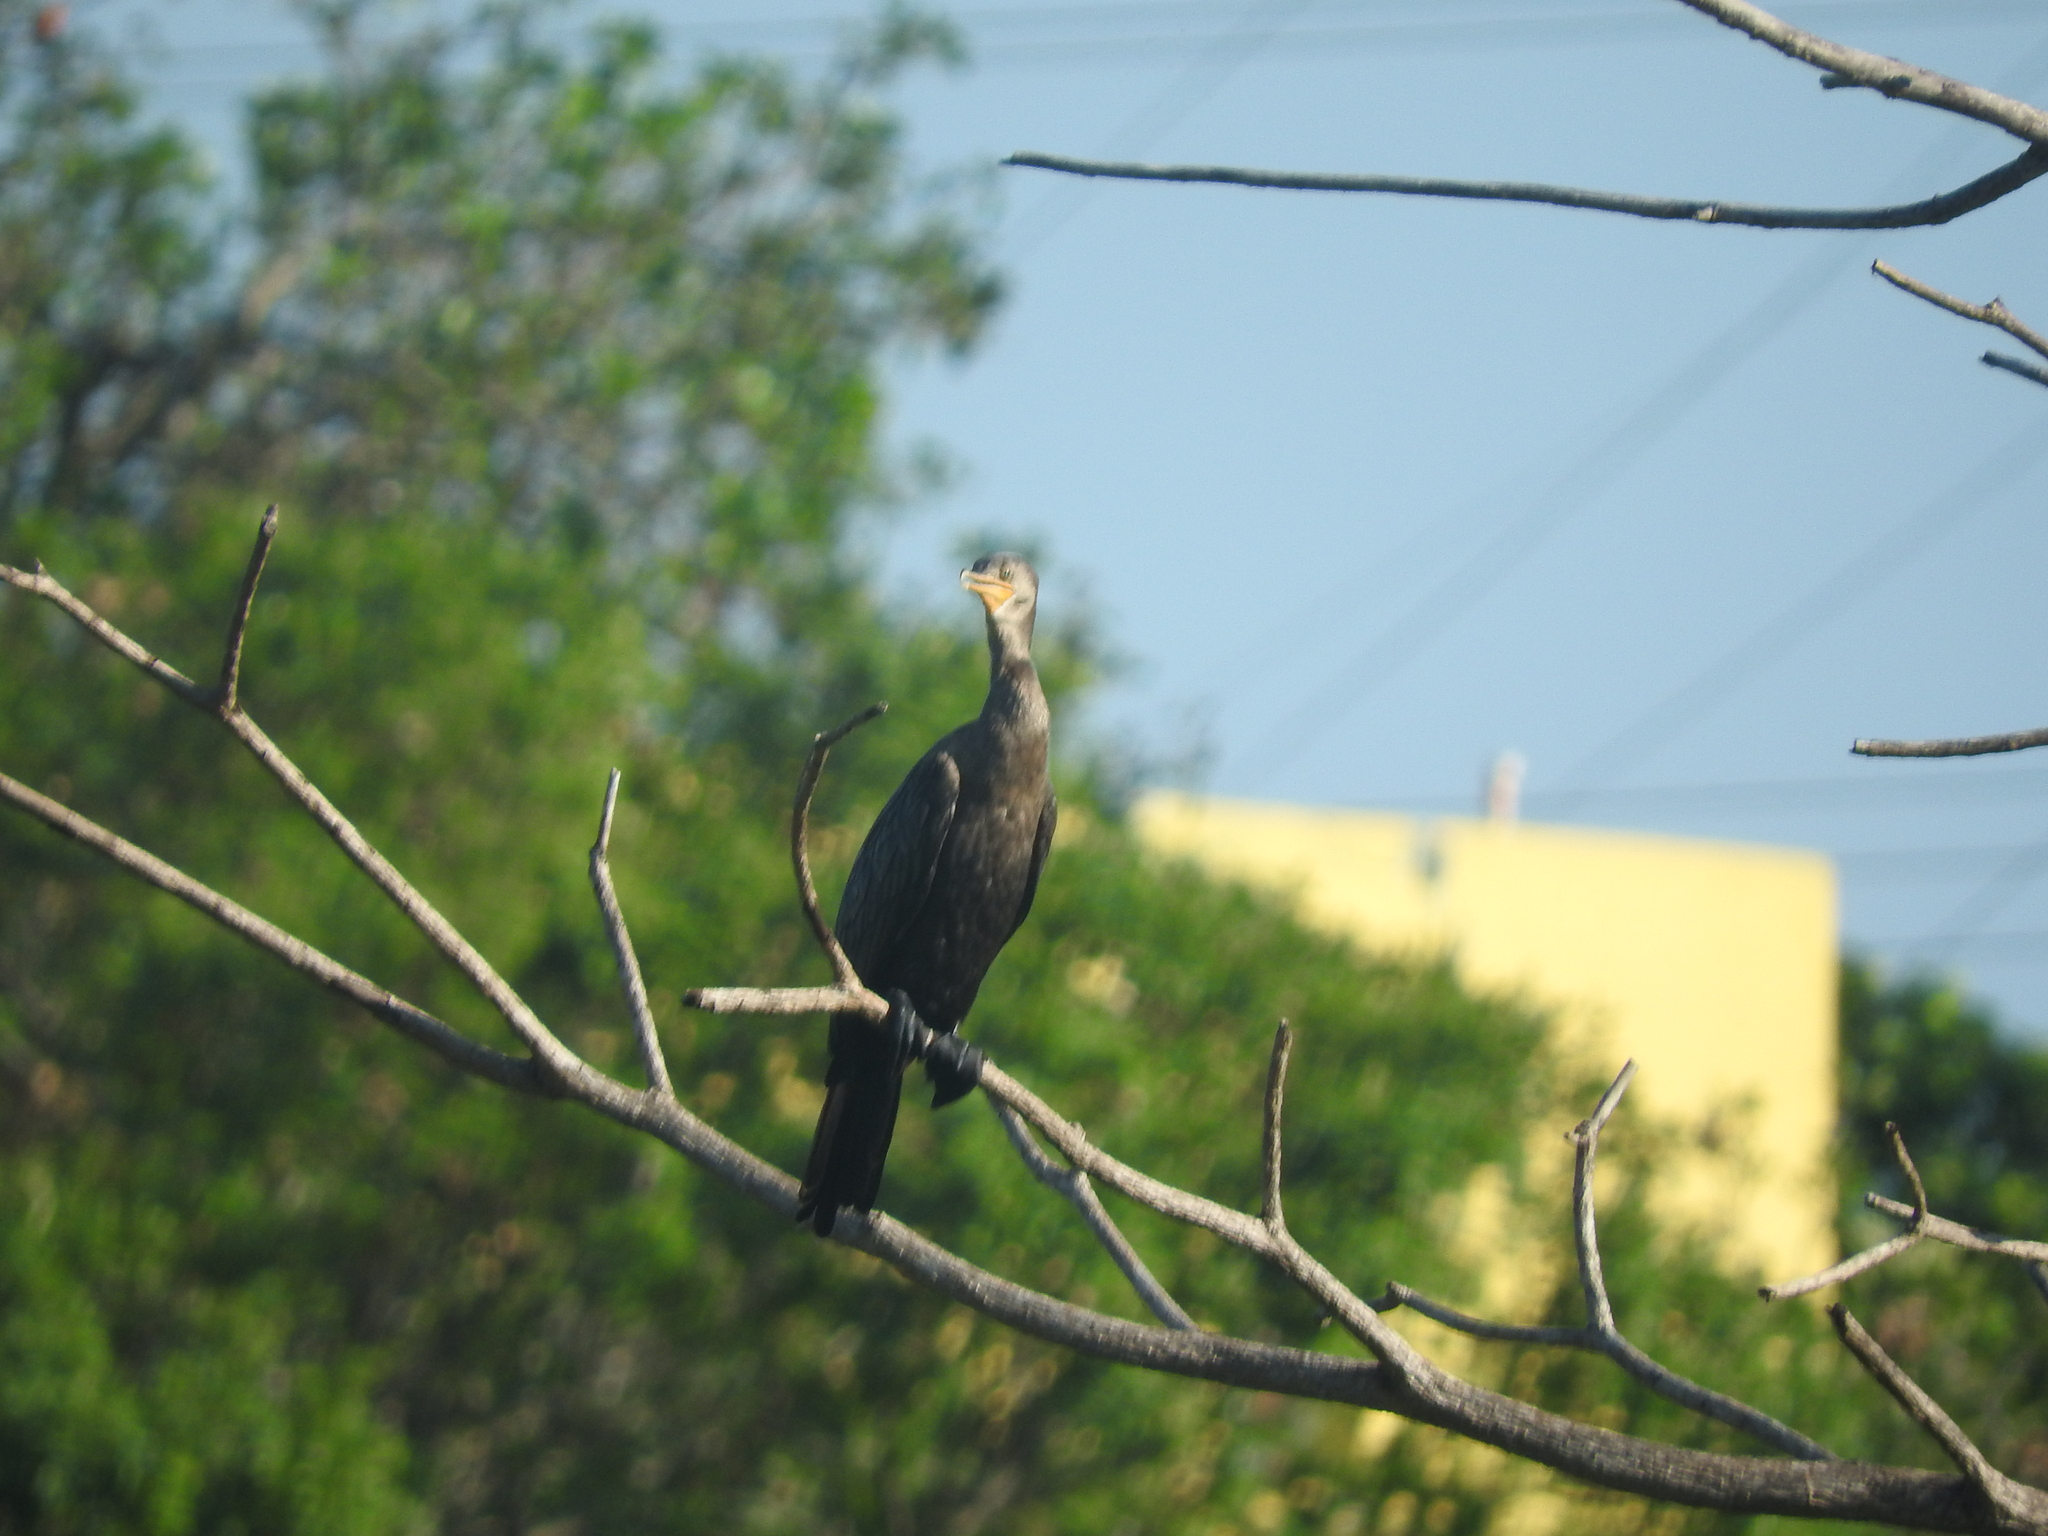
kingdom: Animalia
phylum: Chordata
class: Aves
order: Suliformes
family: Phalacrocoracidae
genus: Phalacrocorax
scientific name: Phalacrocorax brasilianus
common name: Neotropic cormorant
